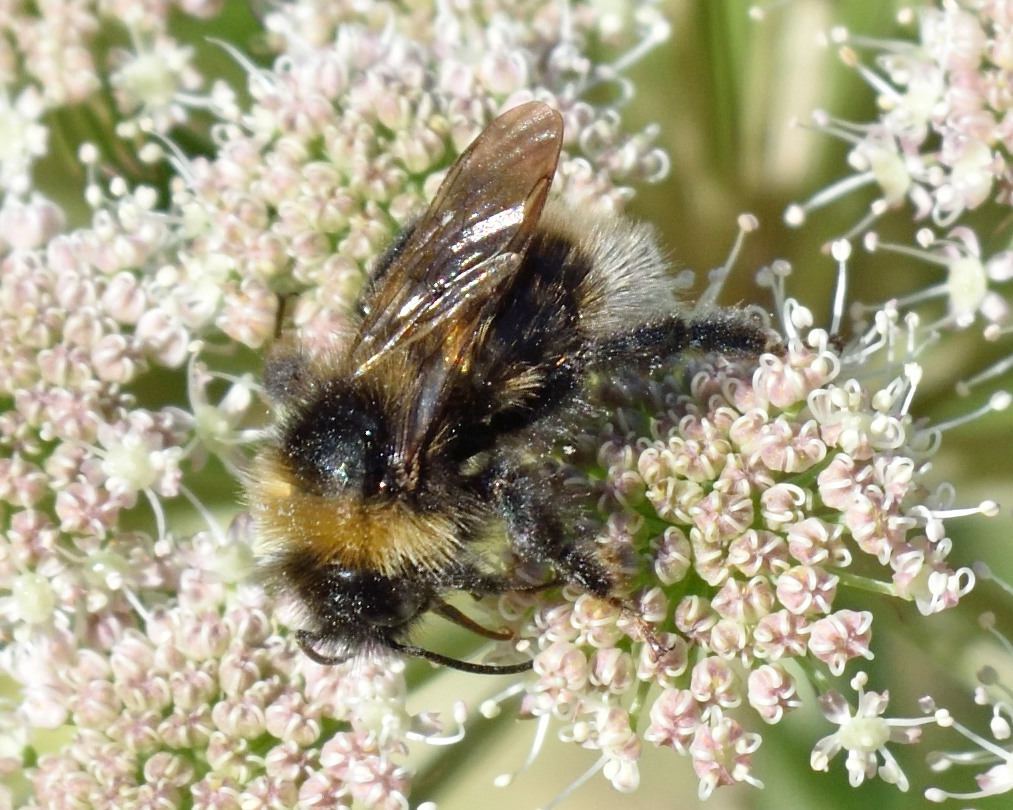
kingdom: Animalia
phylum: Arthropoda
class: Insecta
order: Hymenoptera
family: Apidae
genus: Bombus
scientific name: Bombus
